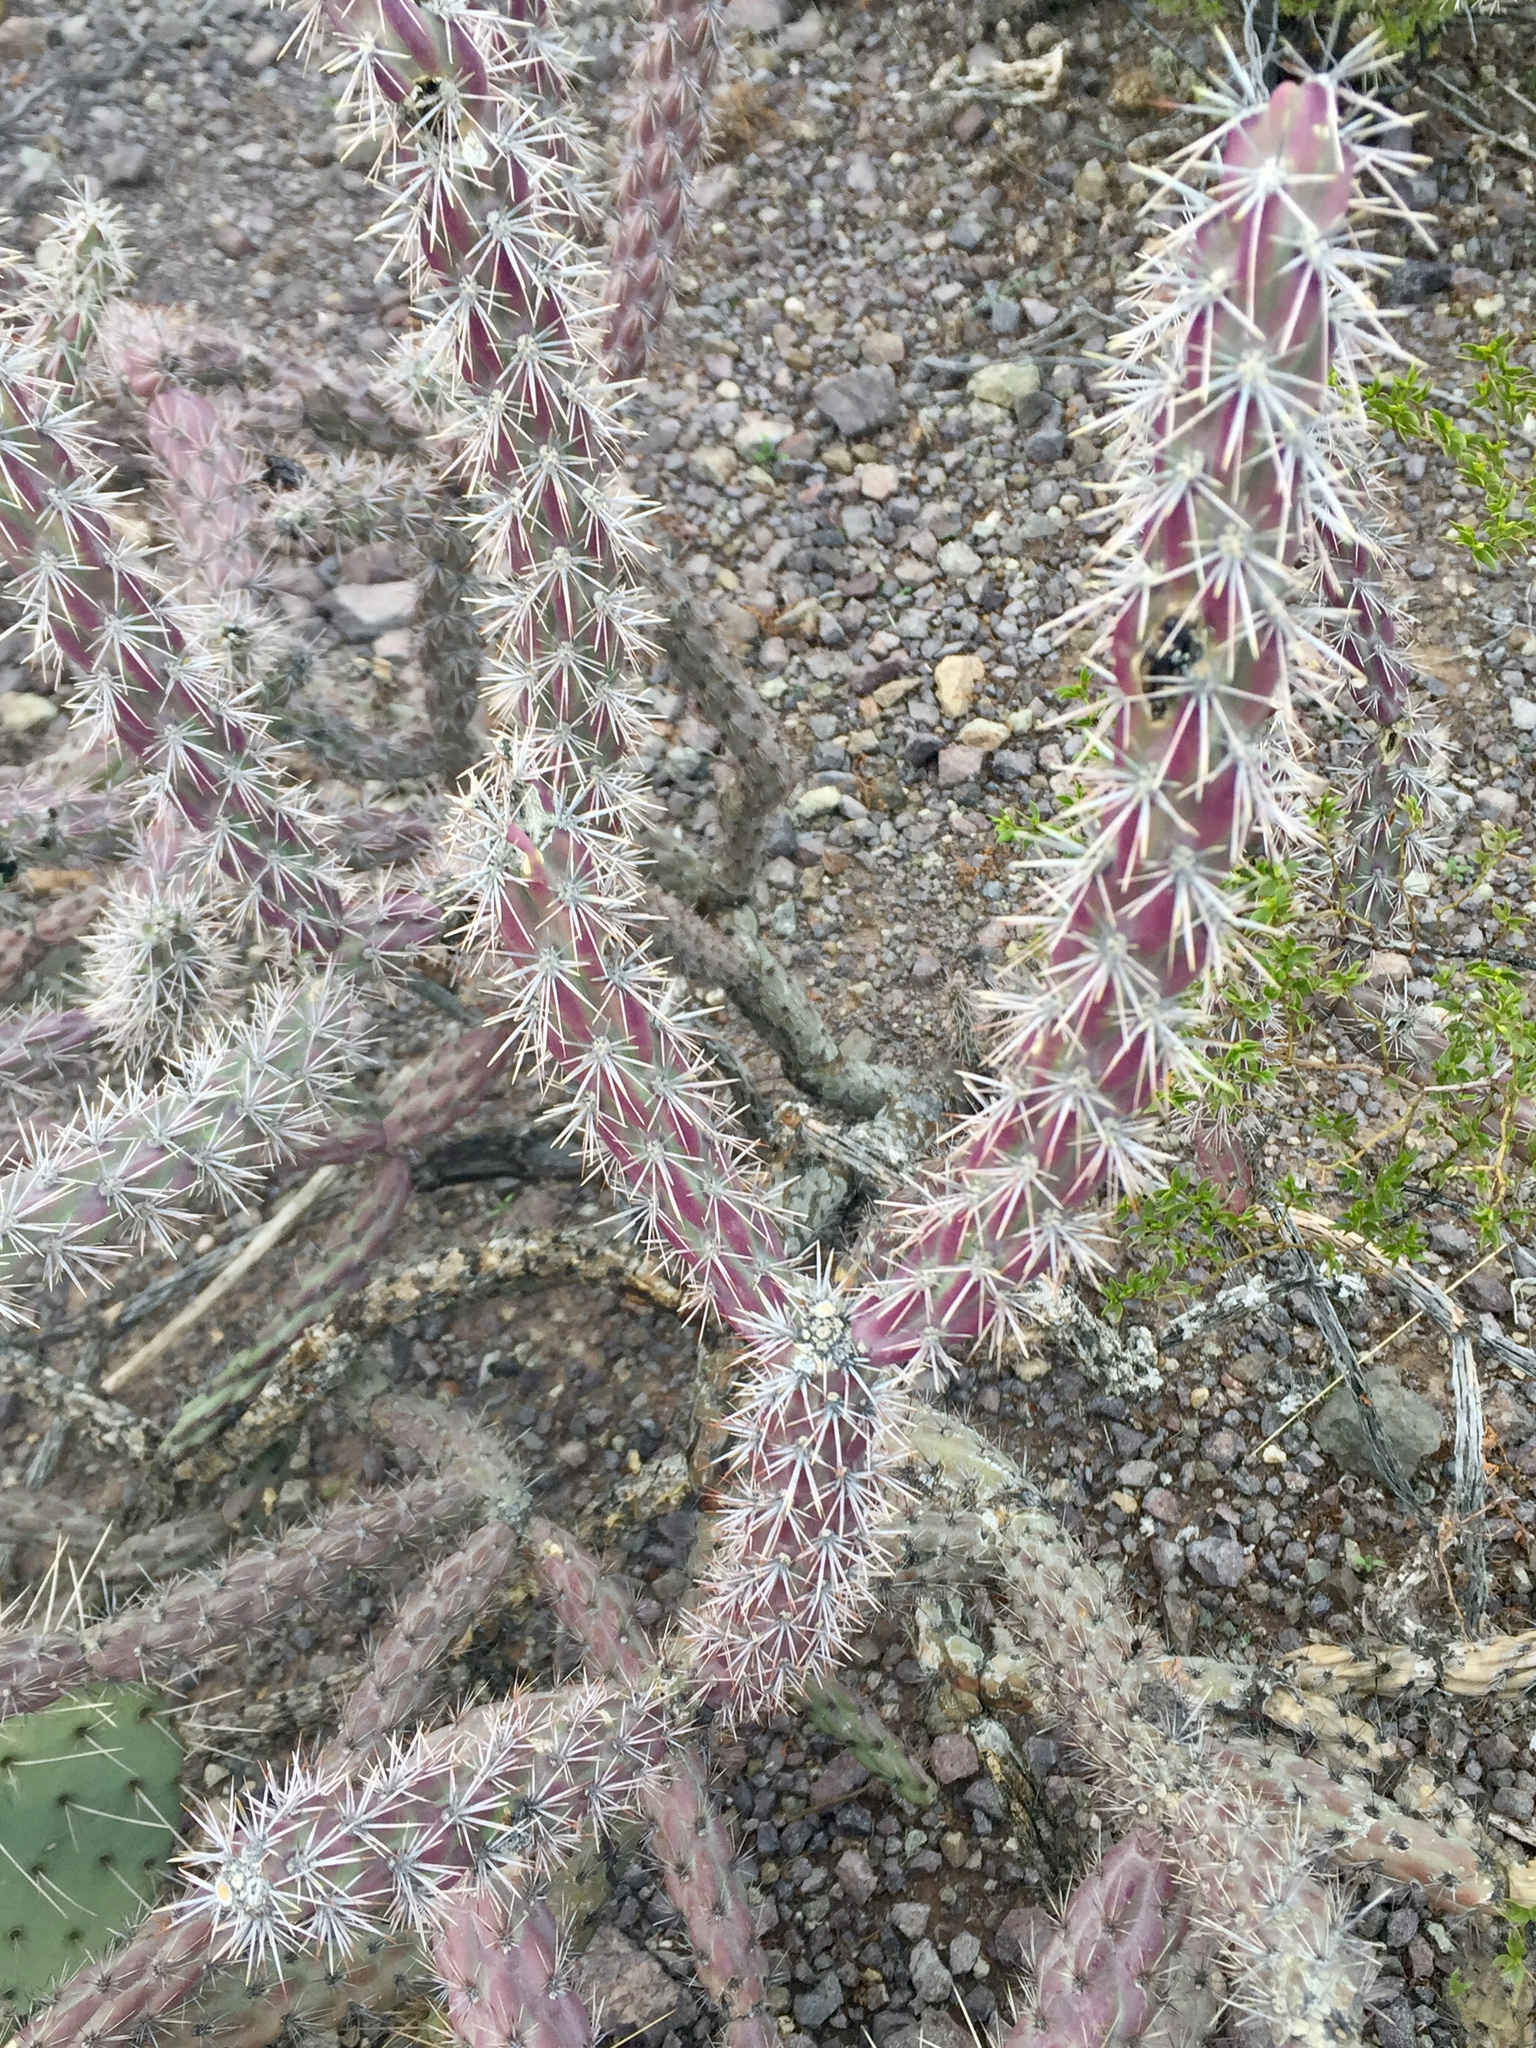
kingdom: Plantae
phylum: Tracheophyta
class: Magnoliopsida
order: Caryophyllales
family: Cactaceae
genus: Cylindropuntia
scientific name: Cylindropuntia thurberi
